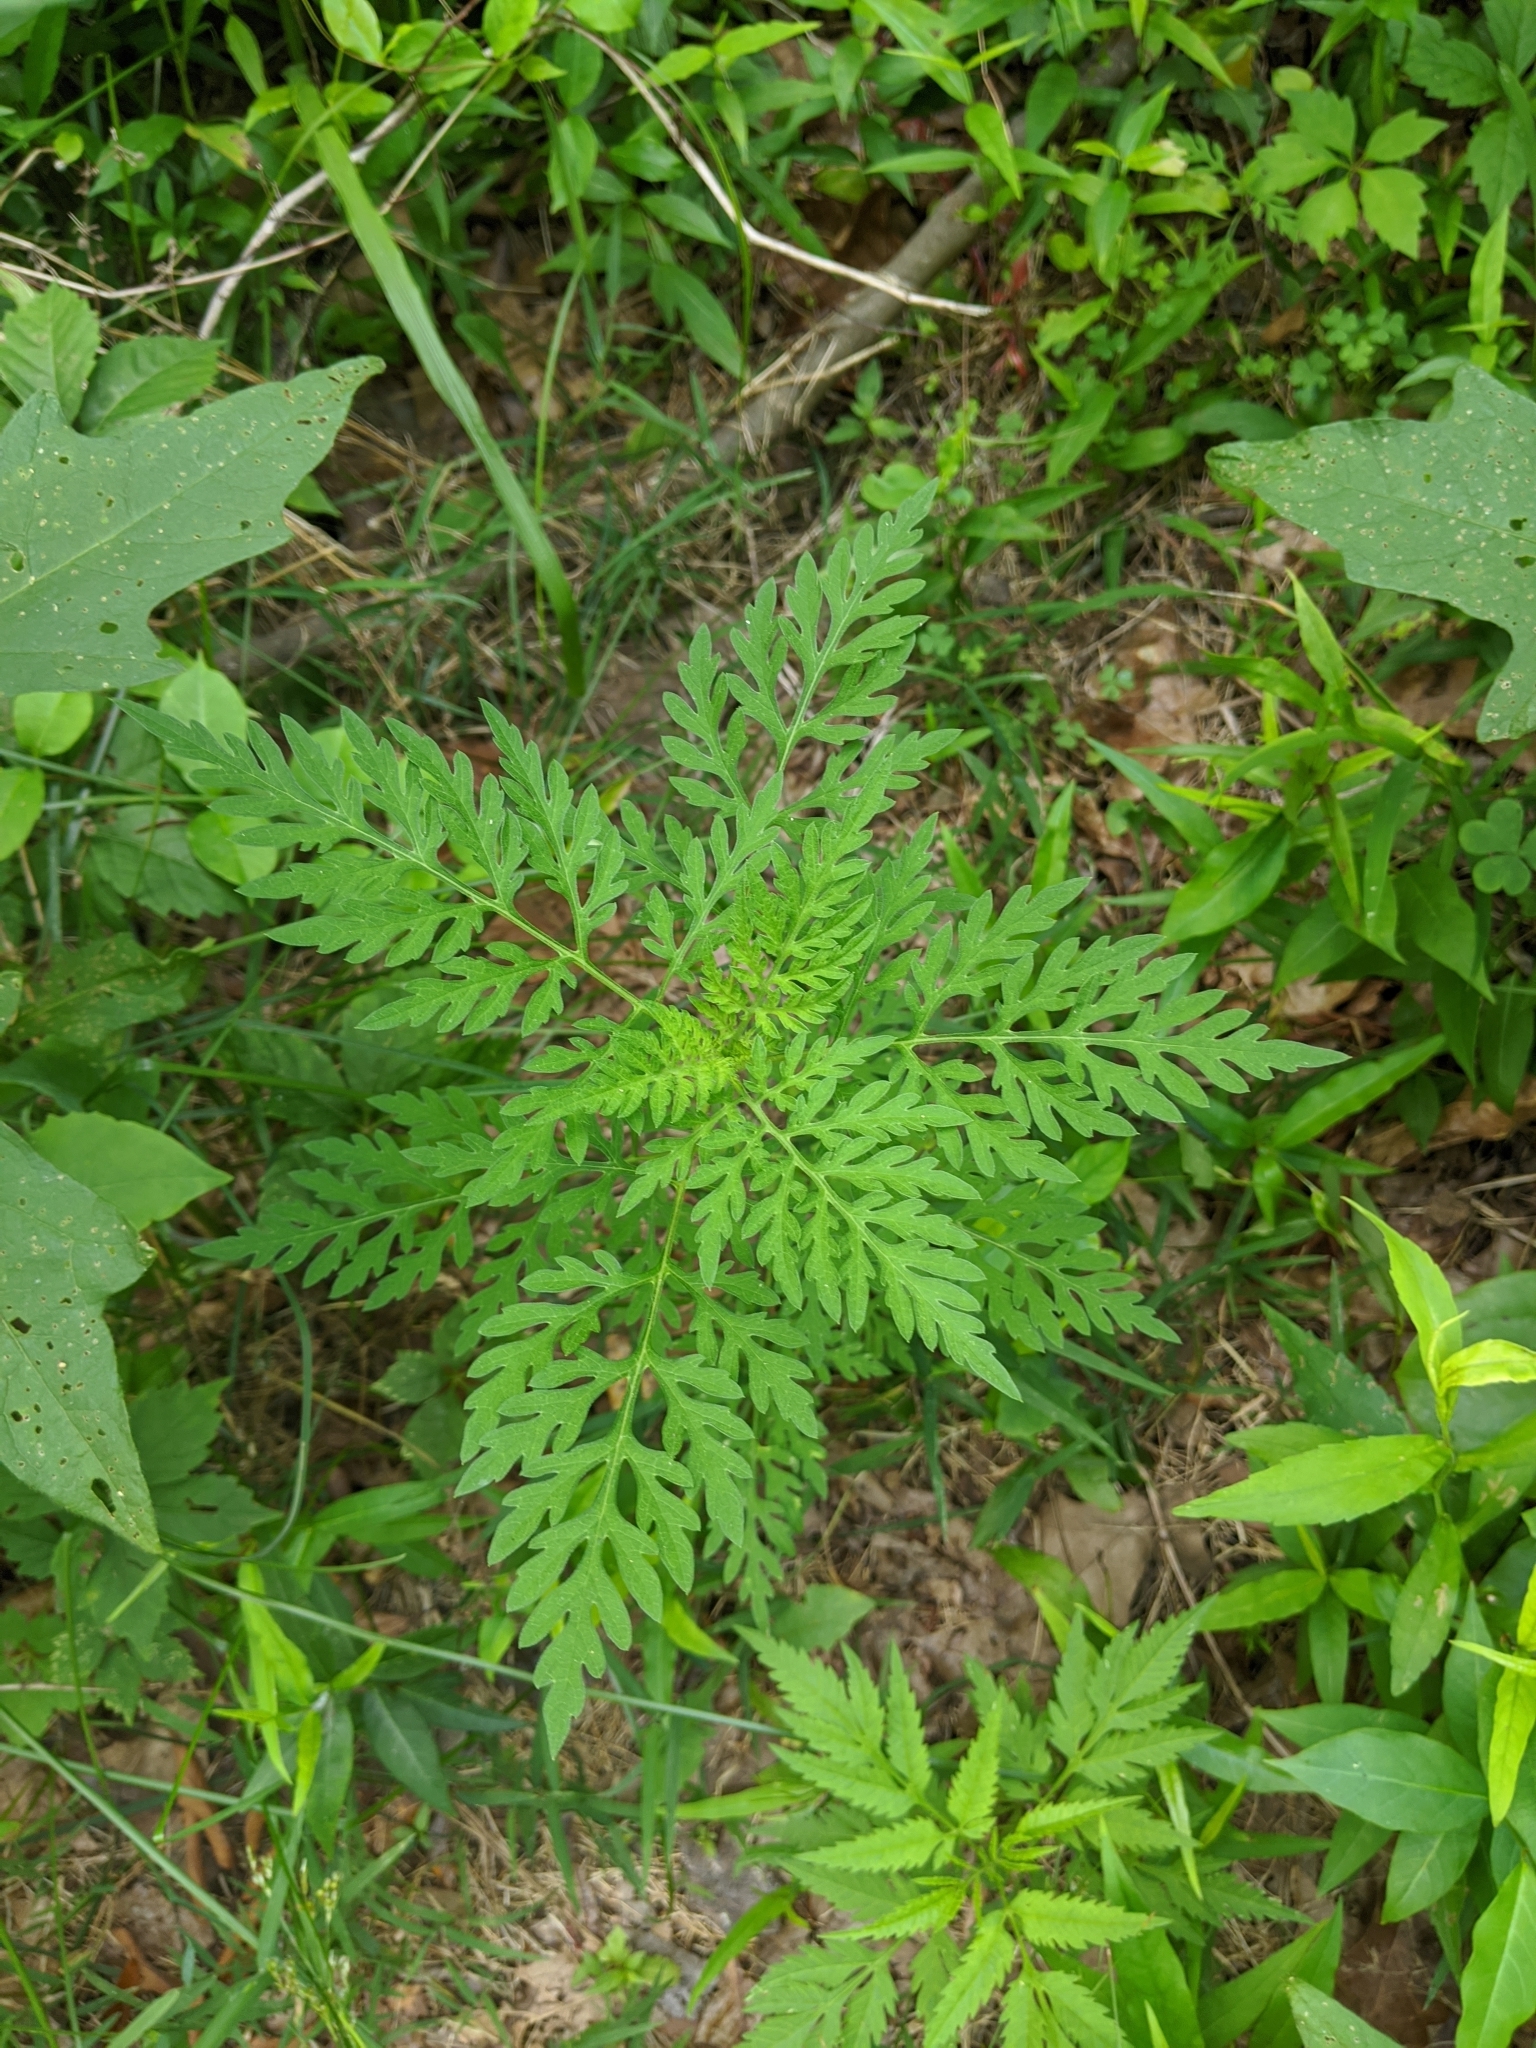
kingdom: Plantae
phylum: Tracheophyta
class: Magnoliopsida
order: Asterales
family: Asteraceae
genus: Ambrosia
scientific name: Ambrosia artemisiifolia
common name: Annual ragweed
